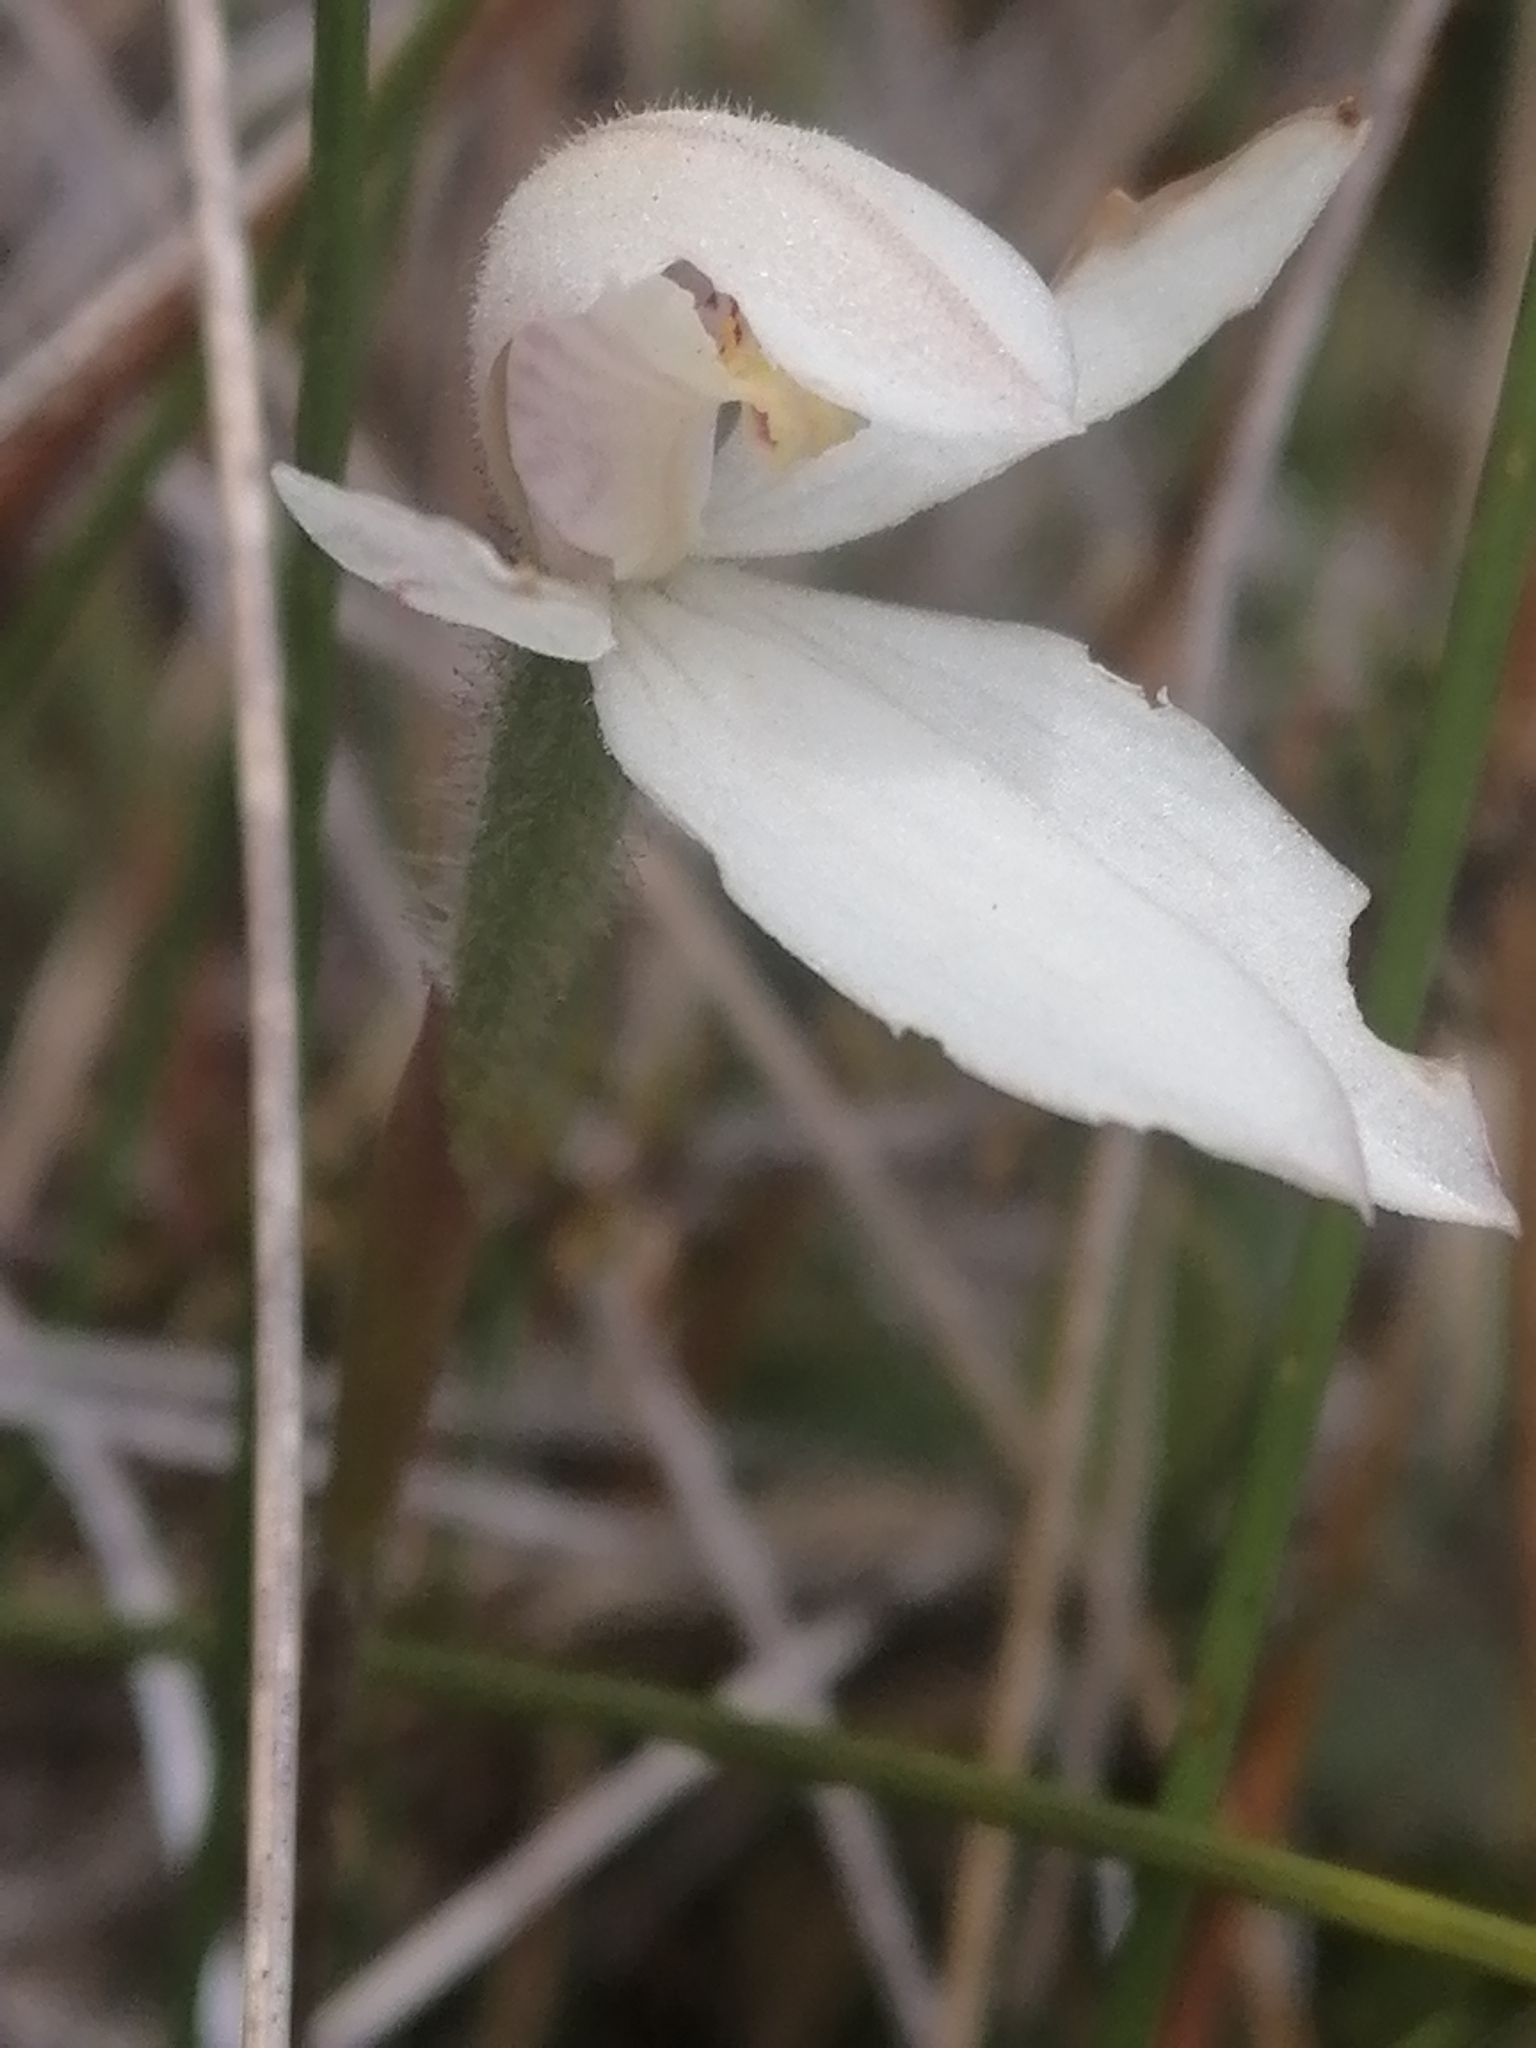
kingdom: Plantae
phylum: Tracheophyta
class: Liliopsida
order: Asparagales
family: Orchidaceae
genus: Caladenia
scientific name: Caladenia lyallii
